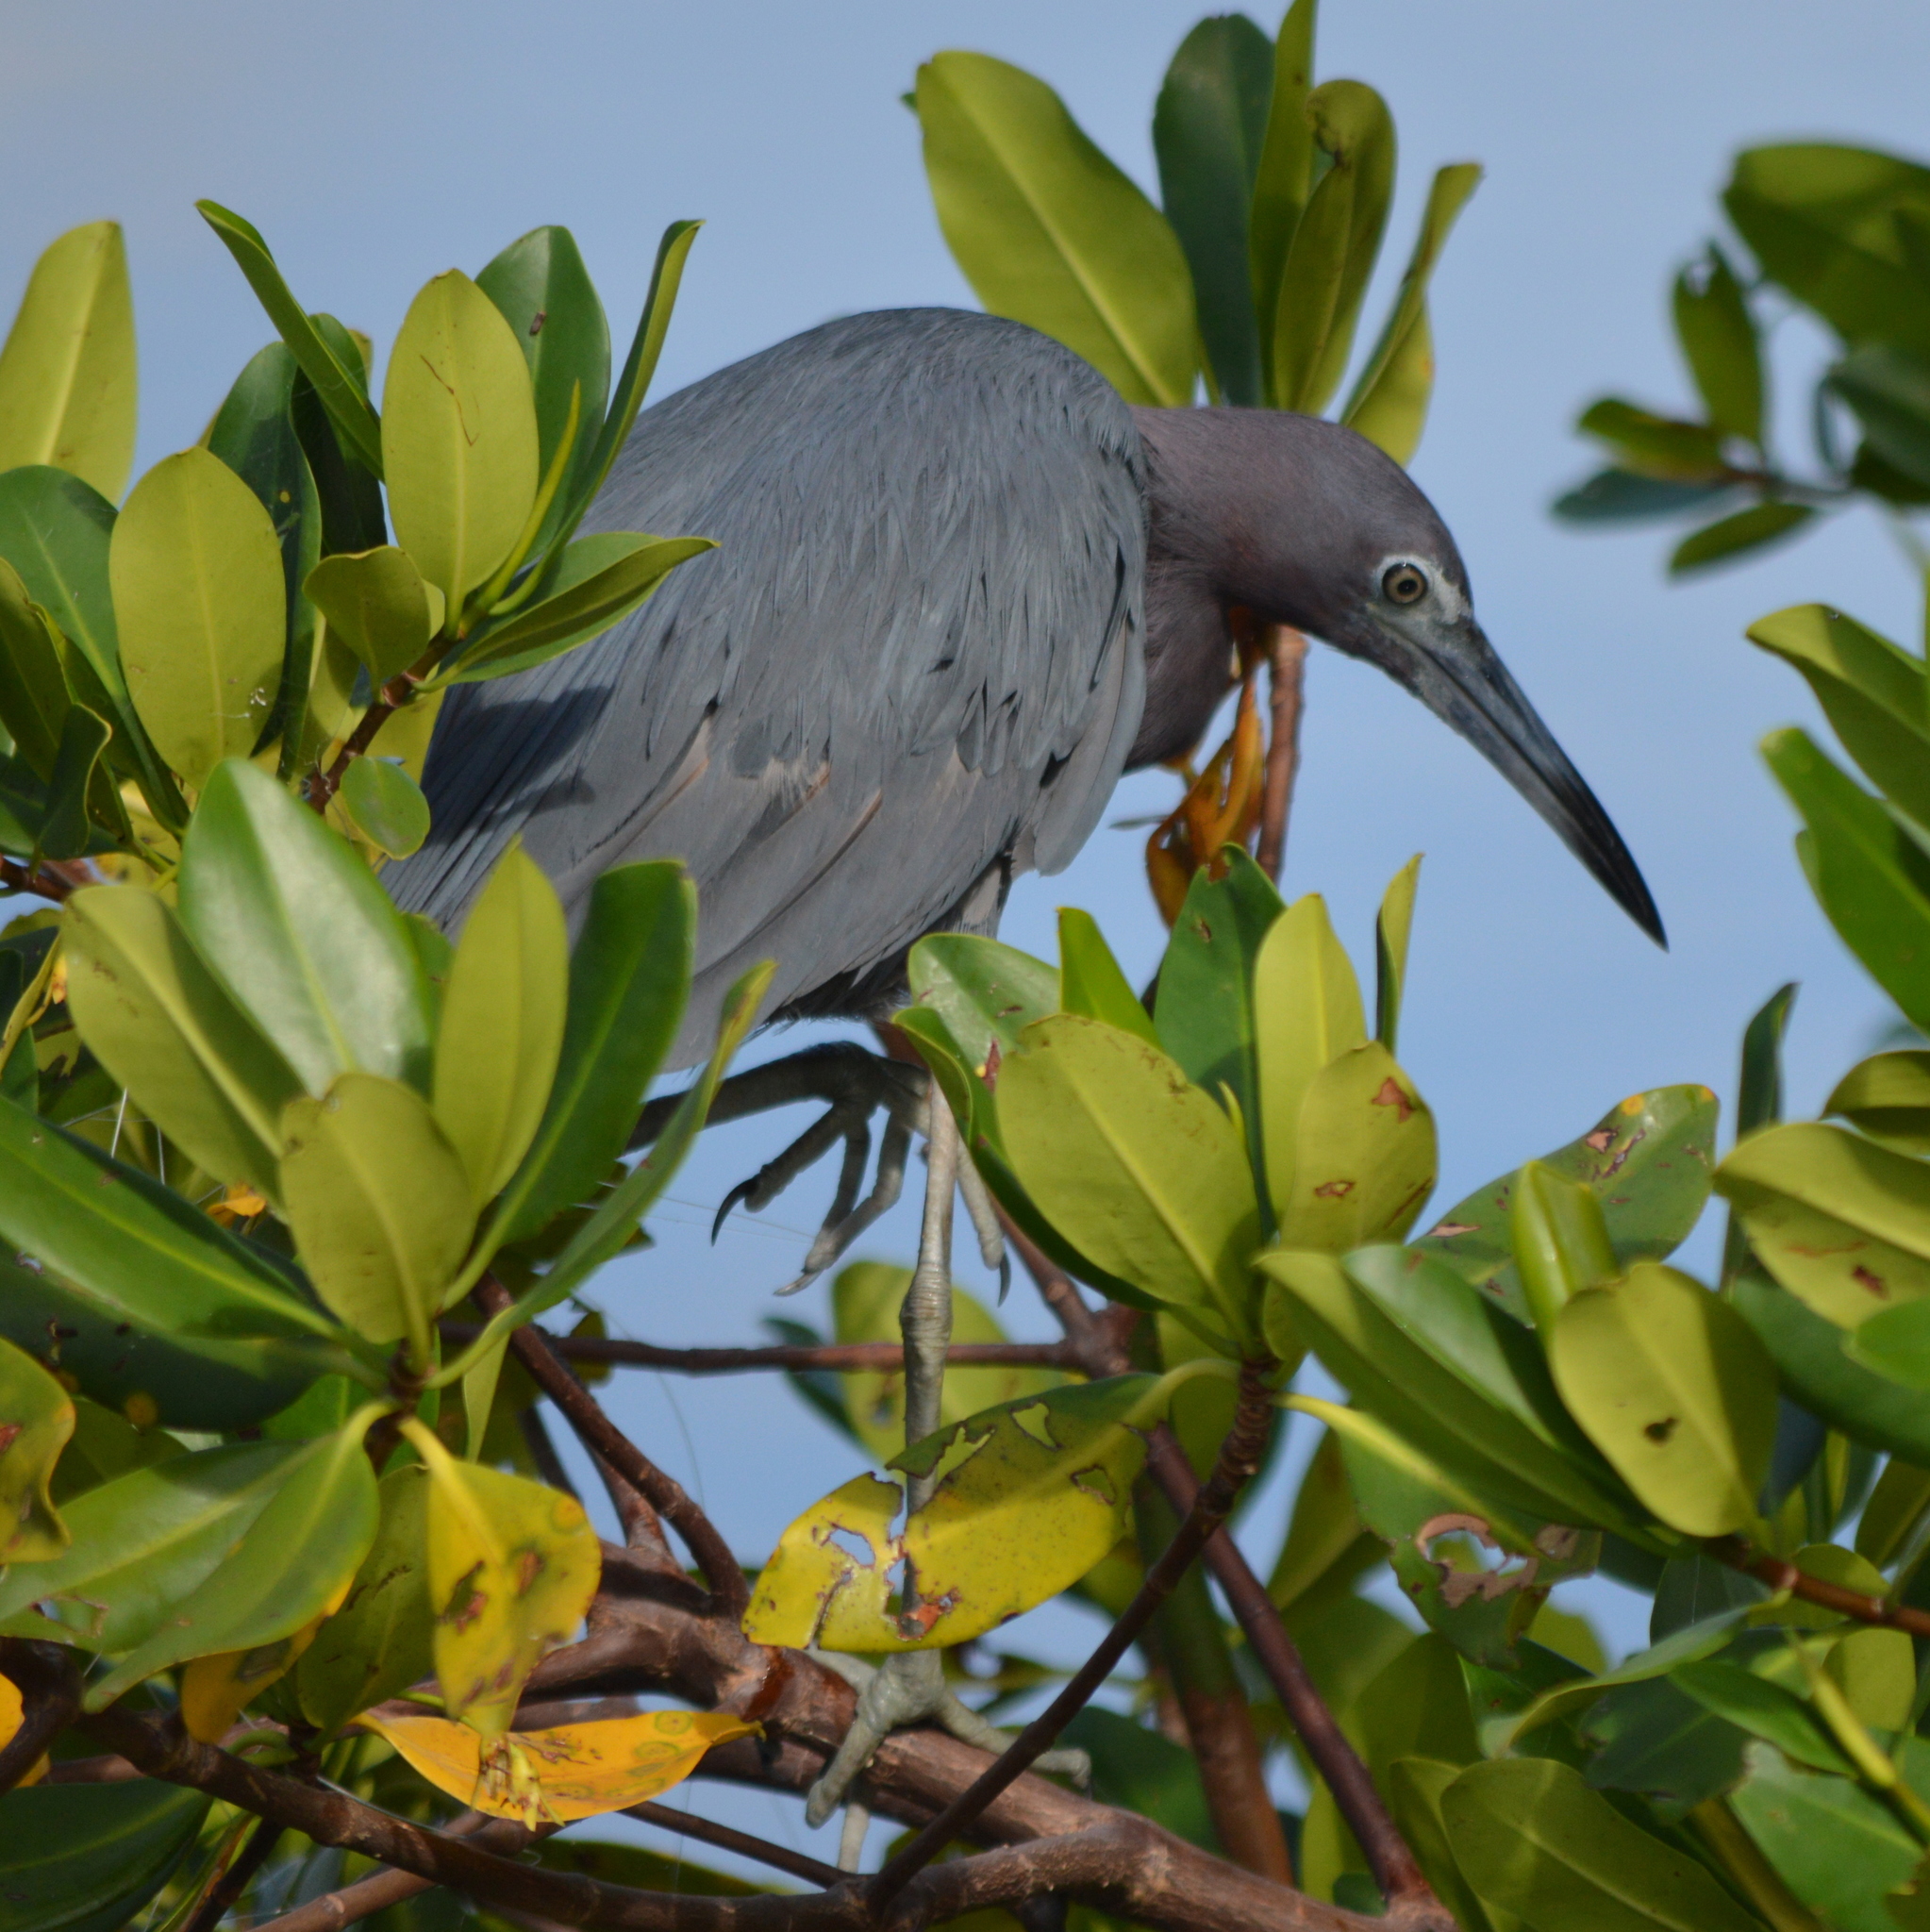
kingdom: Animalia
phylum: Chordata
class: Aves
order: Pelecaniformes
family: Ardeidae
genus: Egretta
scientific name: Egretta caerulea
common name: Little blue heron
